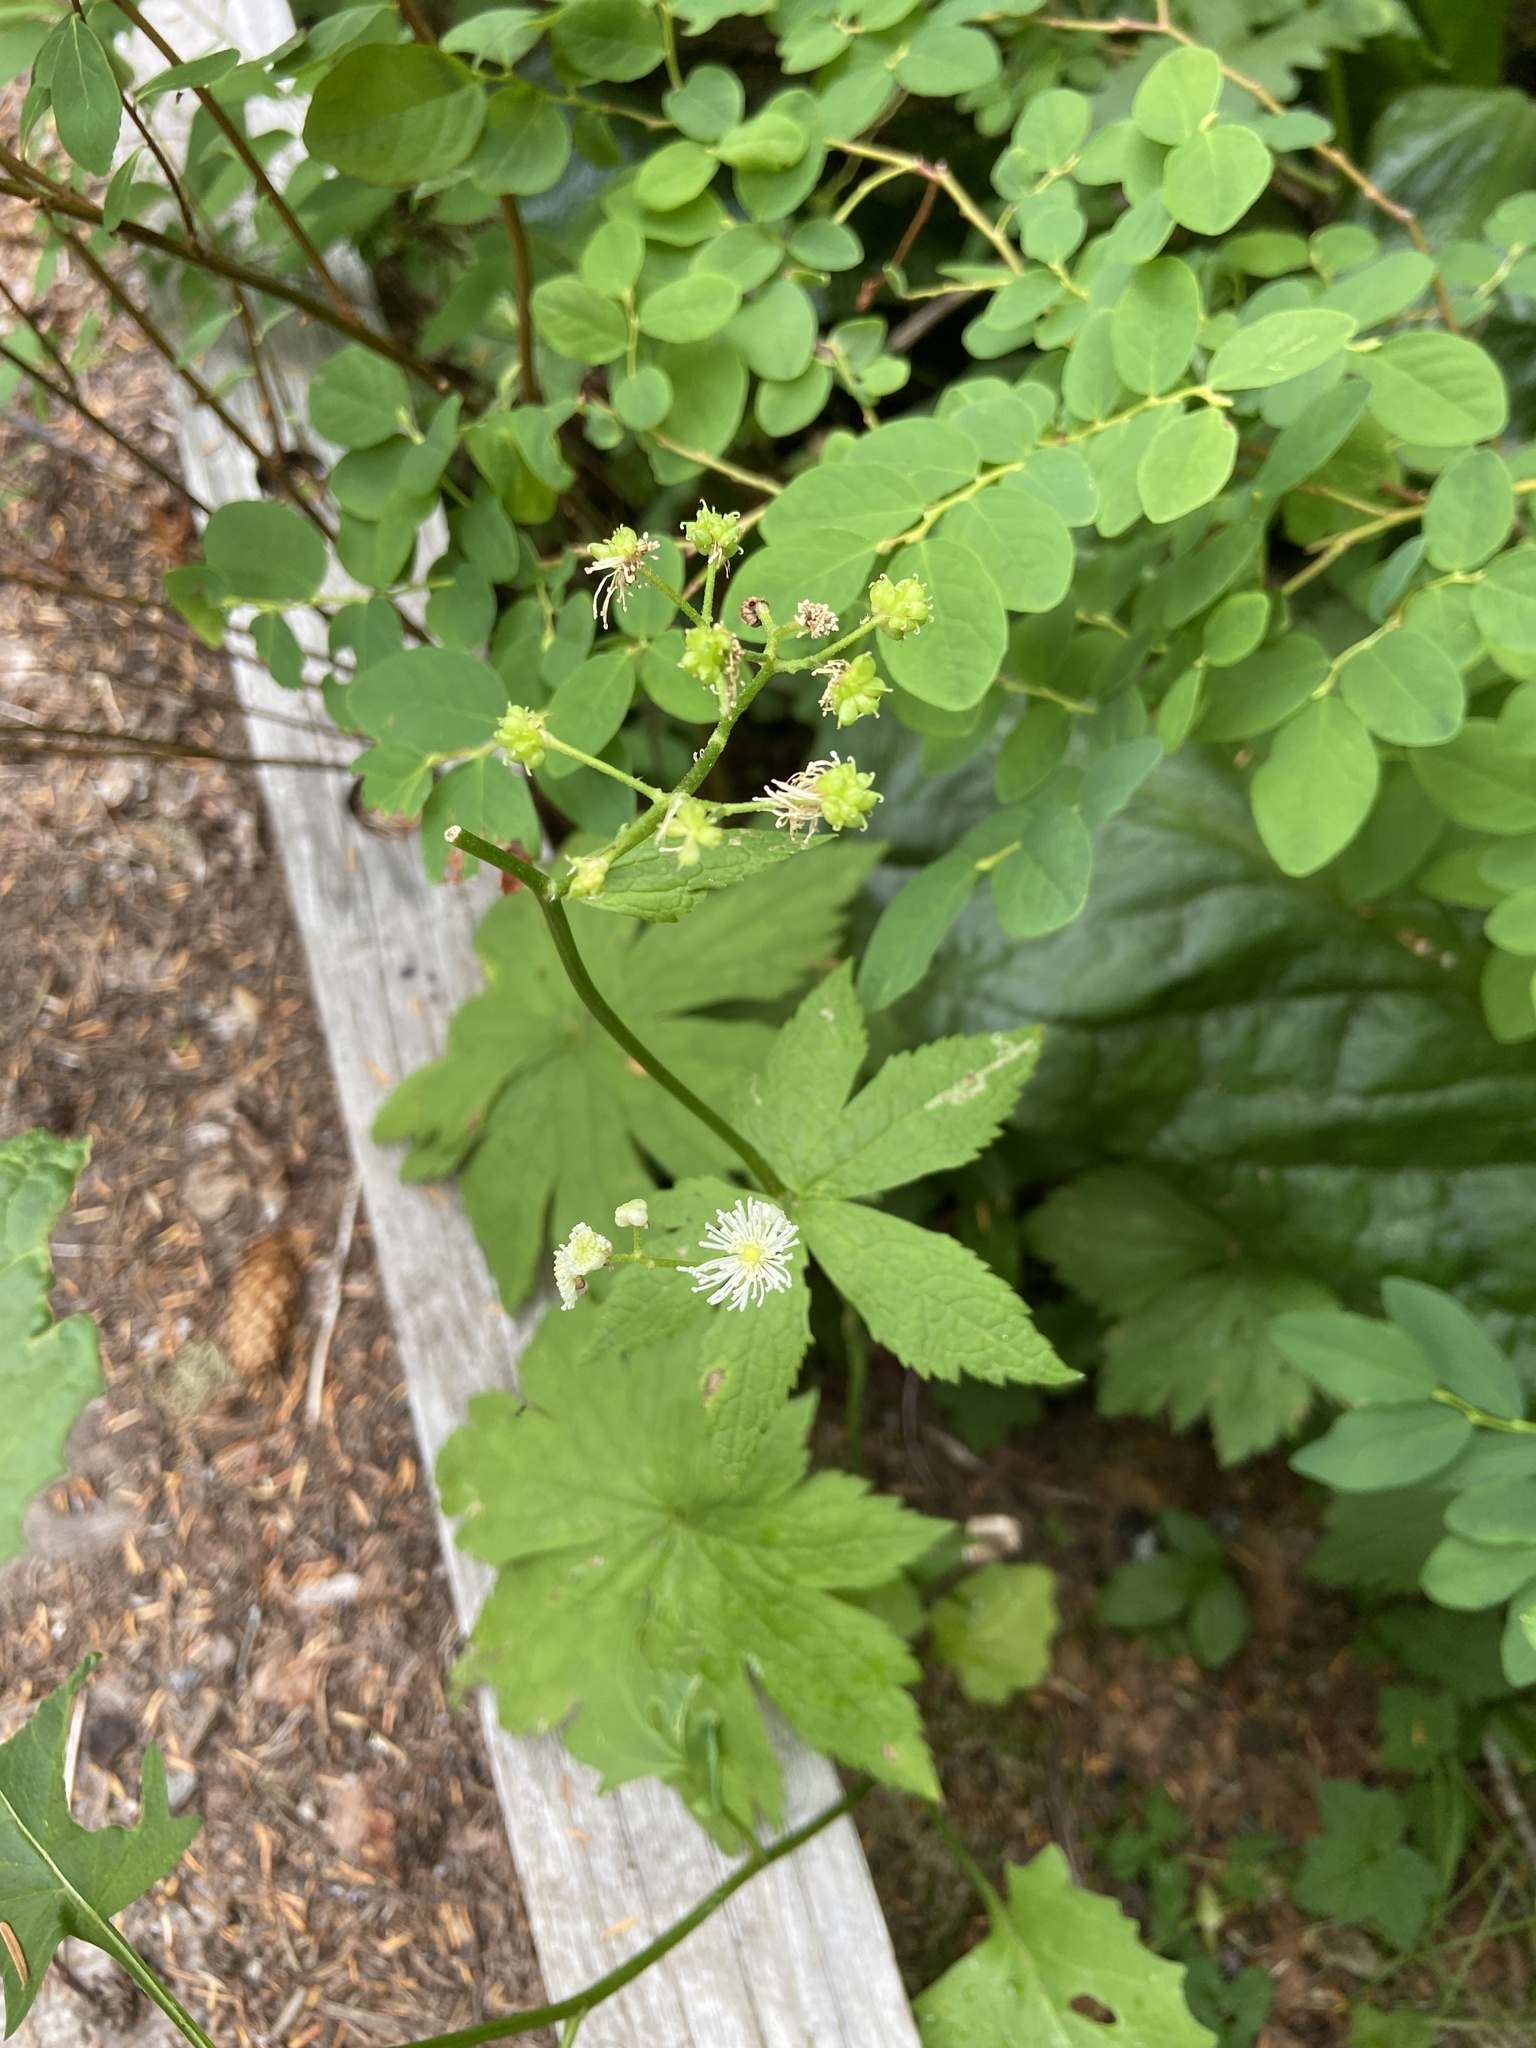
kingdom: Plantae
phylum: Tracheophyta
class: Magnoliopsida
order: Ranunculales
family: Ranunculaceae
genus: Trautvetteria
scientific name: Trautvetteria carolinensis
